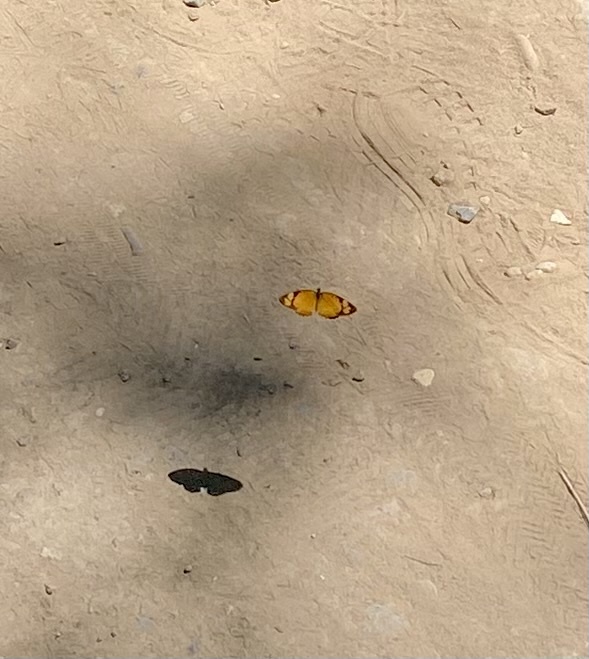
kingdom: Animalia
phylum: Arthropoda
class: Insecta
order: Lepidoptera
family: Nymphalidae
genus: Tegosa
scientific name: Tegosa claudina
